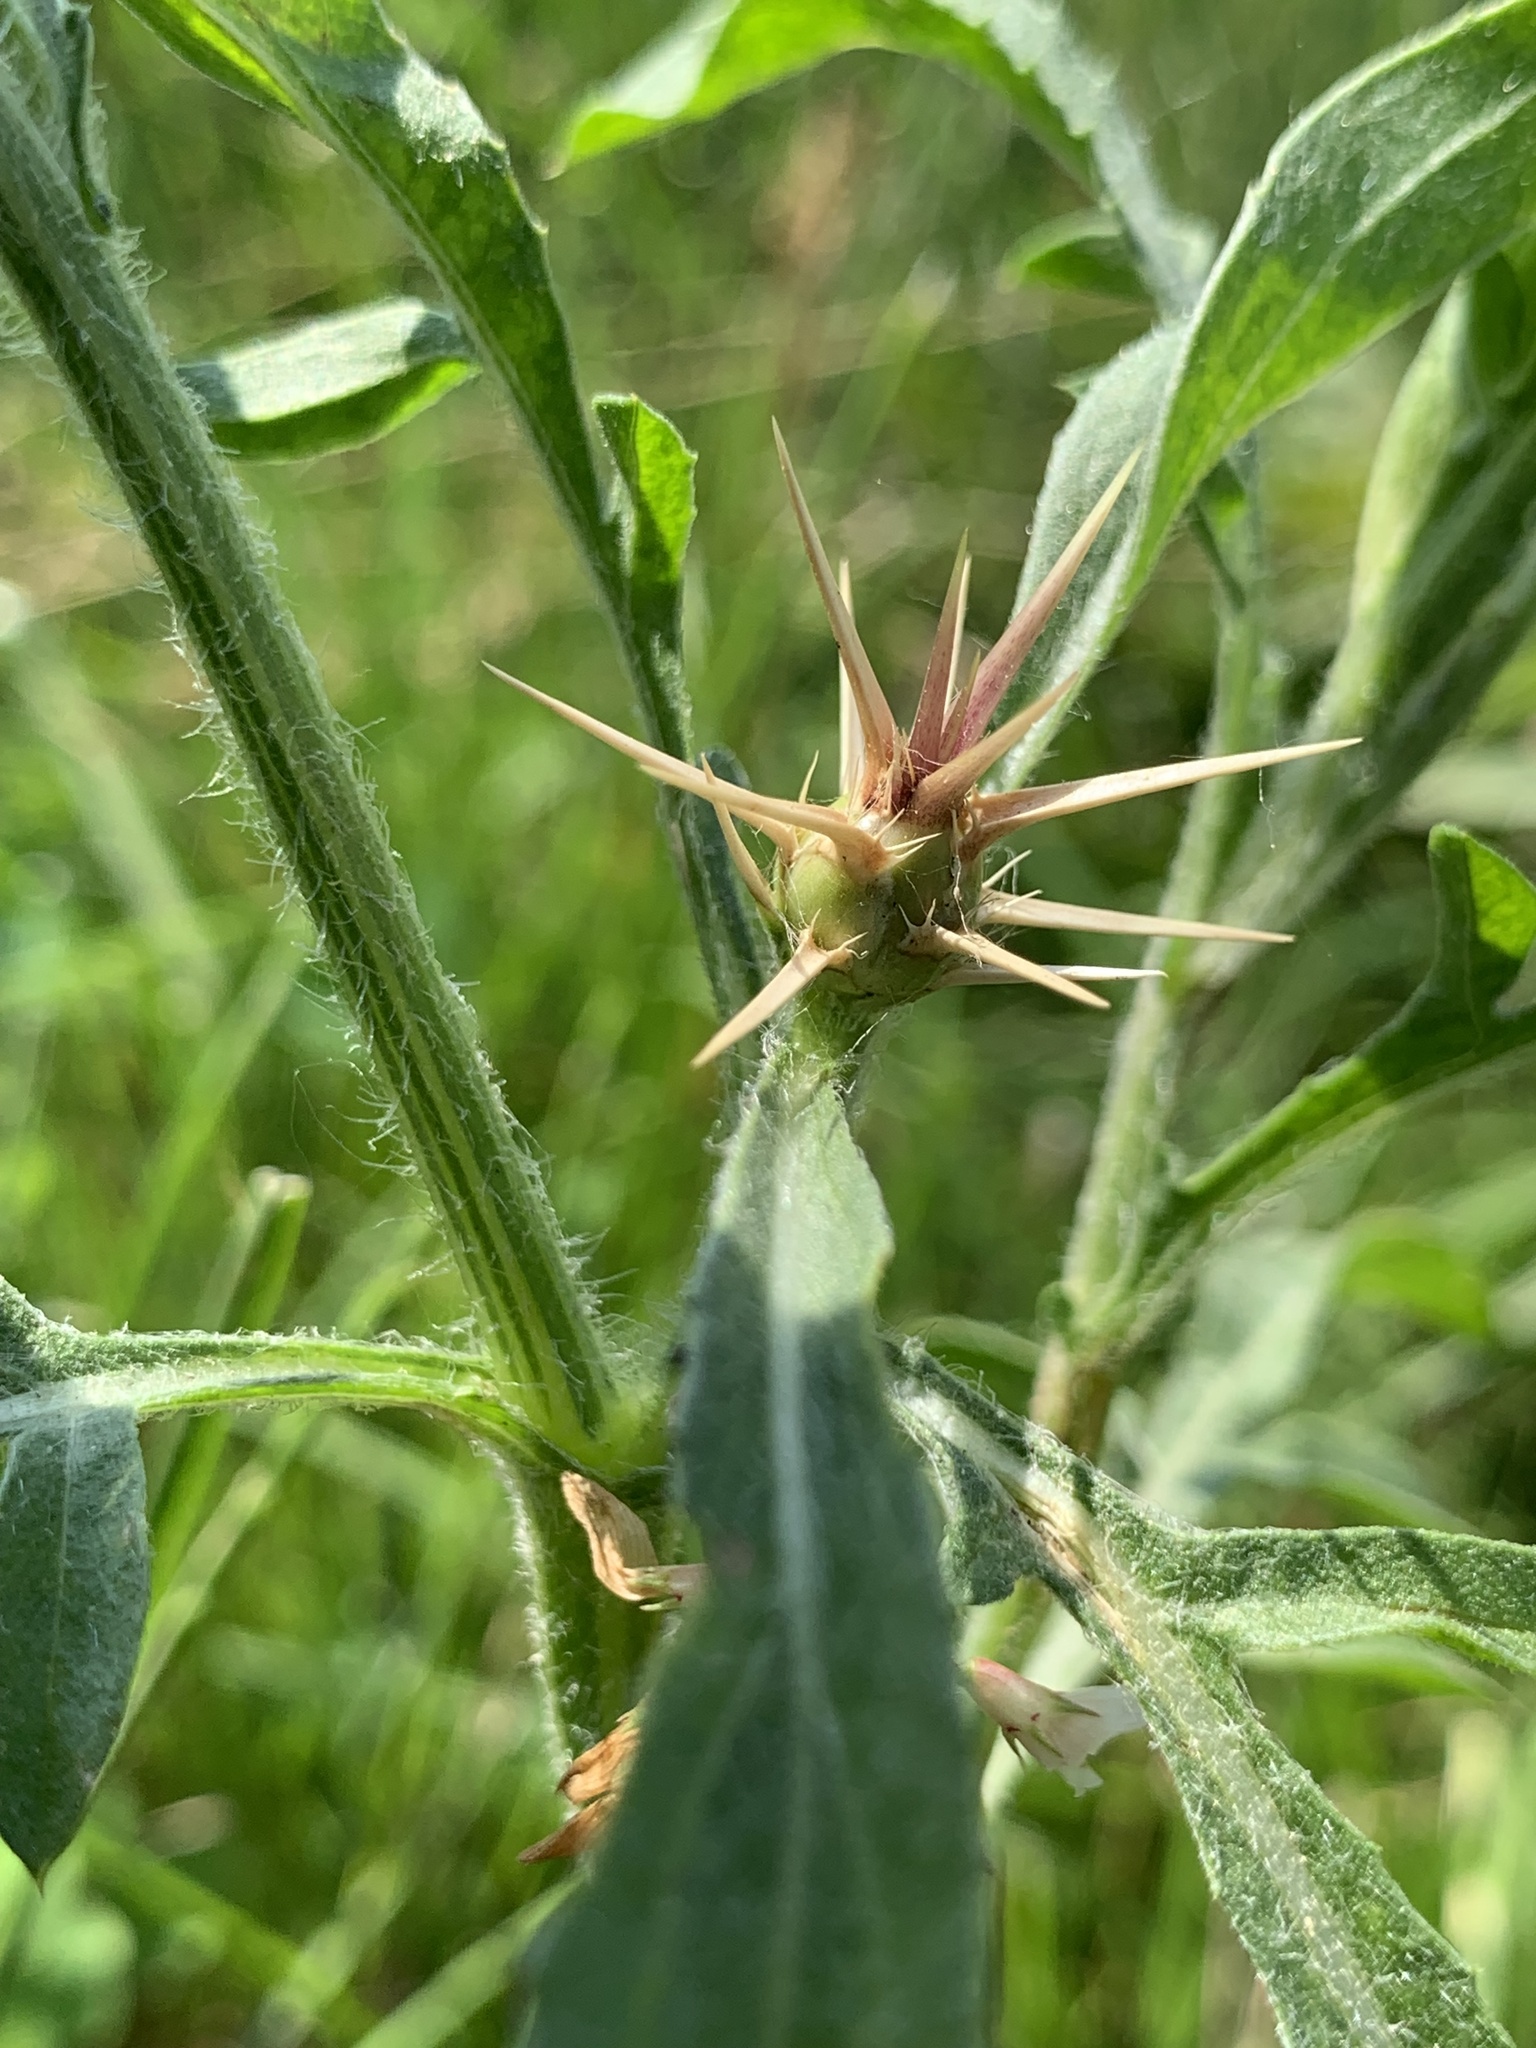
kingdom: Plantae
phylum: Tracheophyta
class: Magnoliopsida
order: Asterales
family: Asteraceae
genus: Centaurea
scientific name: Centaurea iberica
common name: Iberian knapweed
